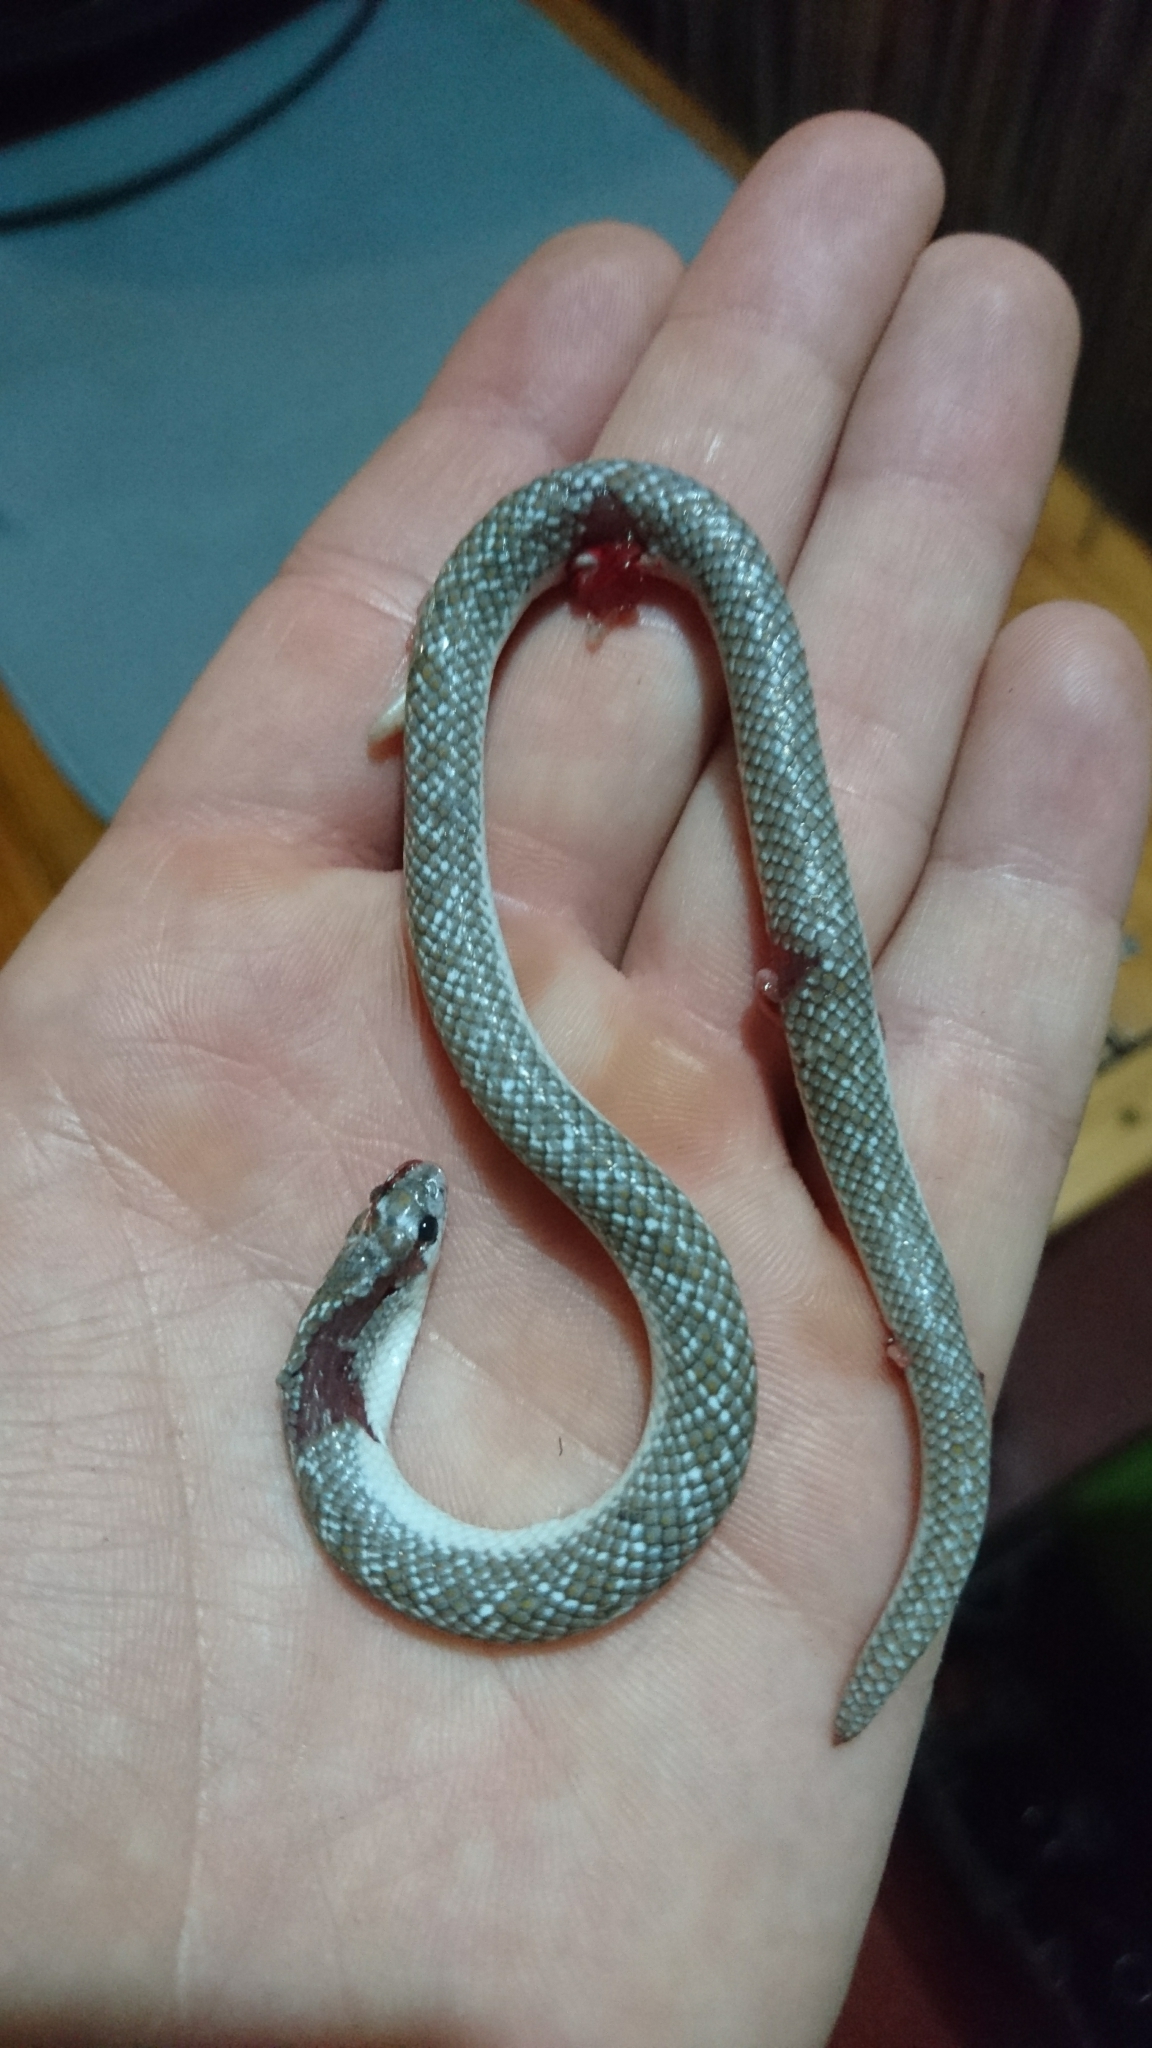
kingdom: Animalia
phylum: Chordata
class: Squamata
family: Prosymnidae
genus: Prosymna
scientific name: Prosymna lineata
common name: Lined shovel-snout
